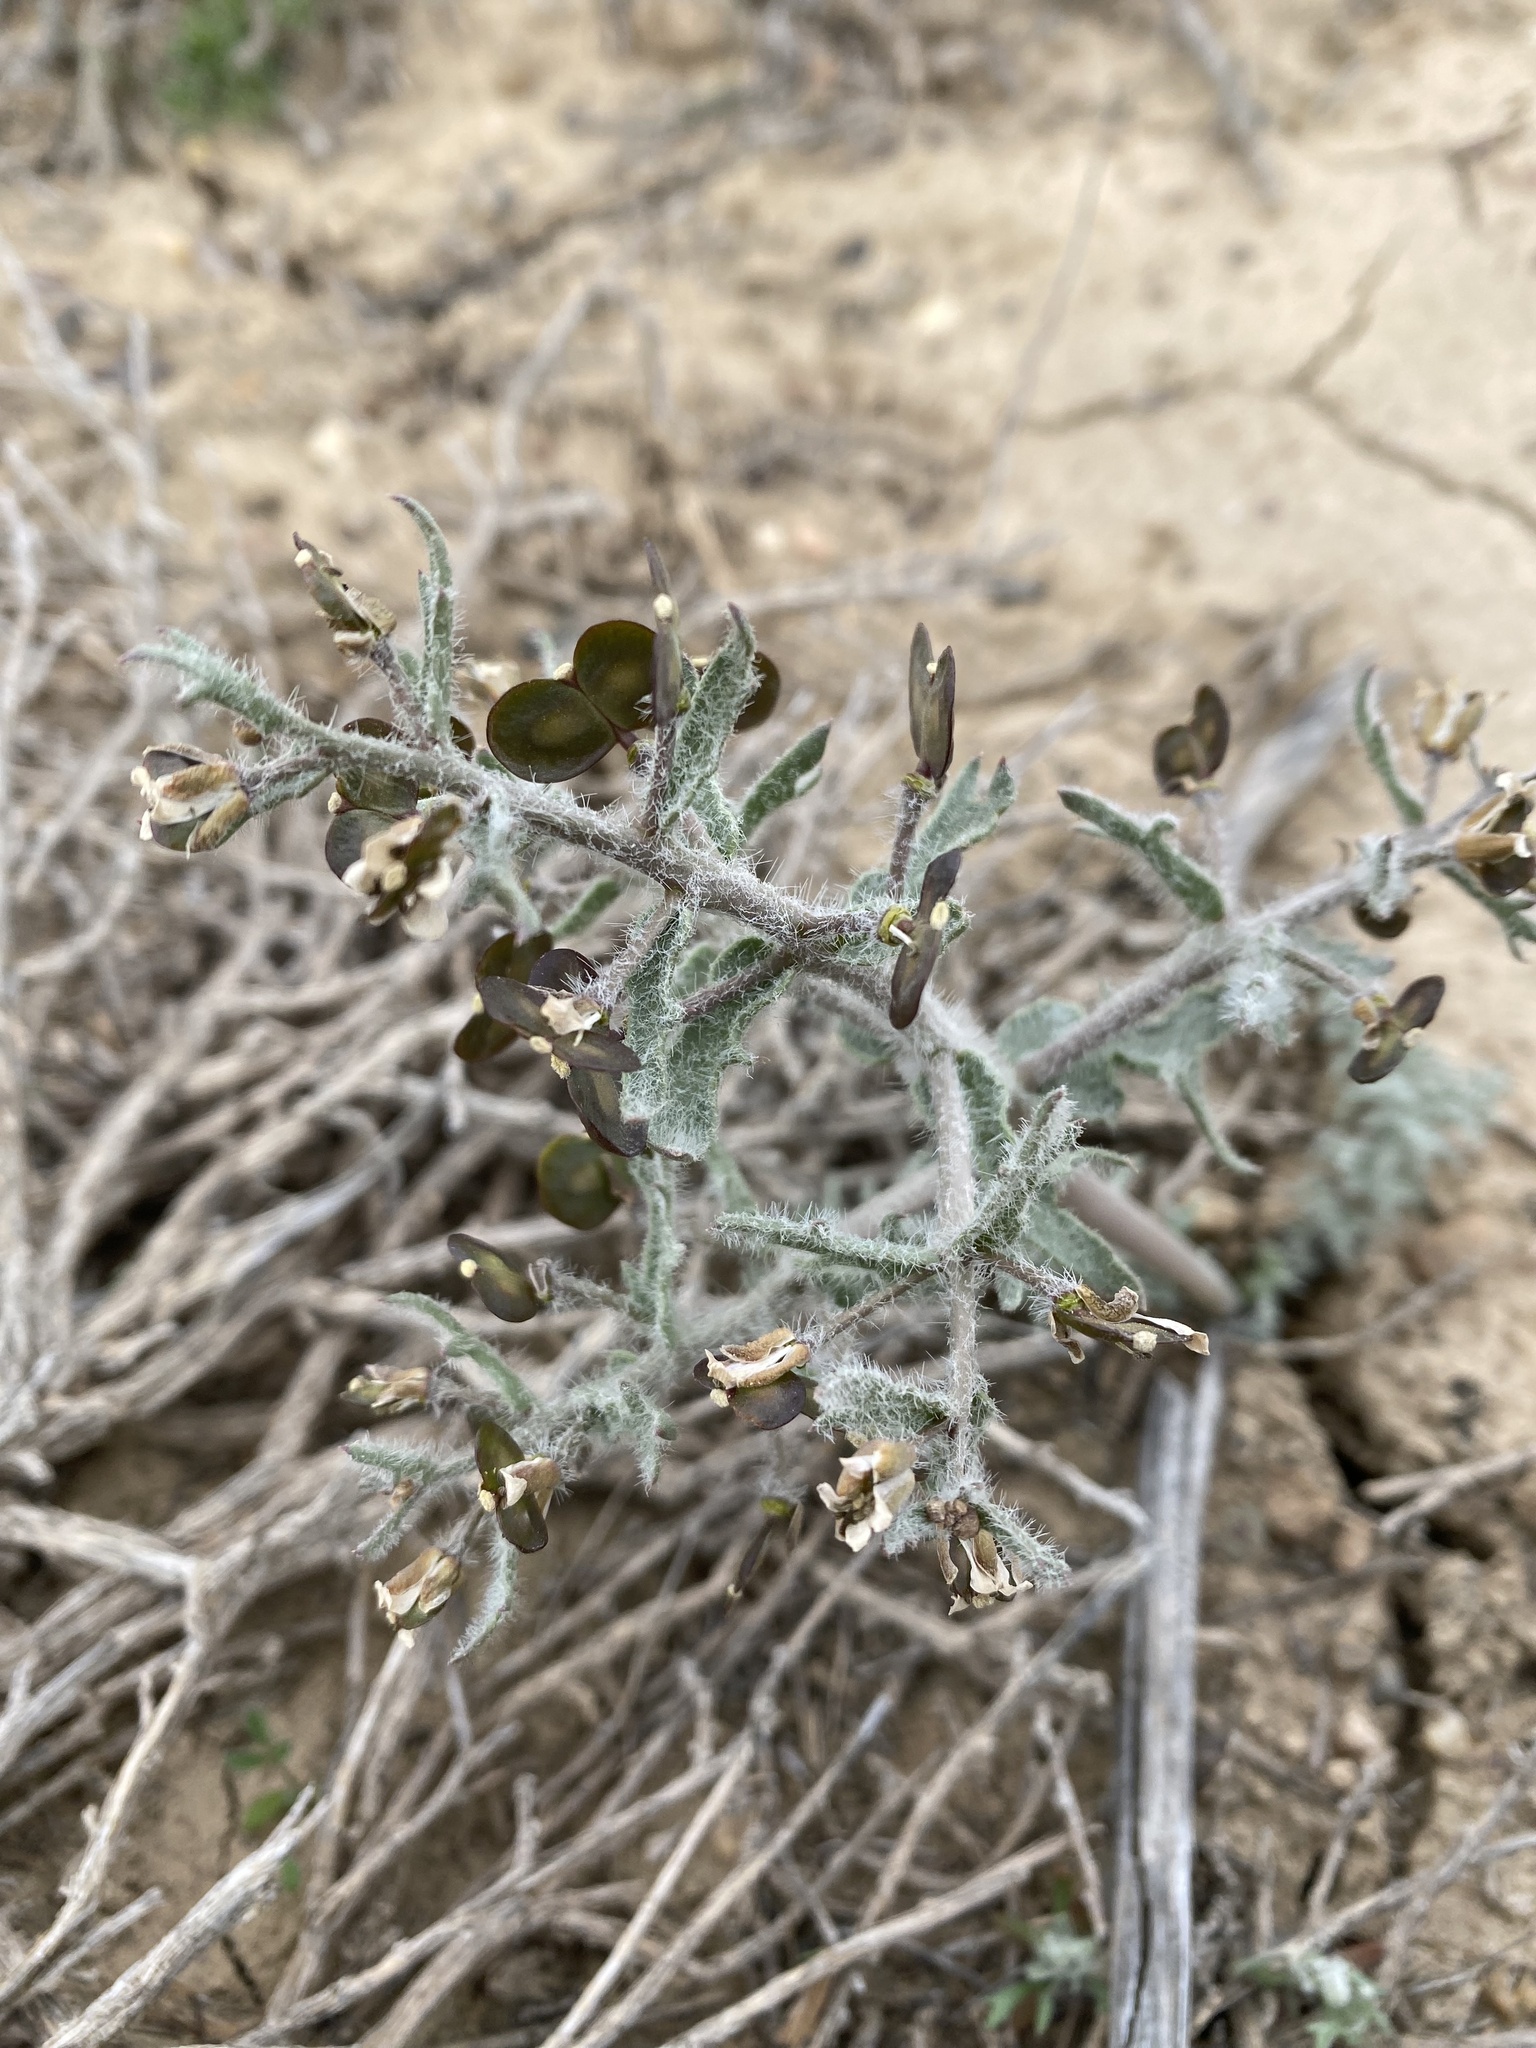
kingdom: Plantae
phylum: Tracheophyta
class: Magnoliopsida
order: Brassicales
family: Brassicaceae
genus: Megacarpaea
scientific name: Megacarpaea megalocarpa
